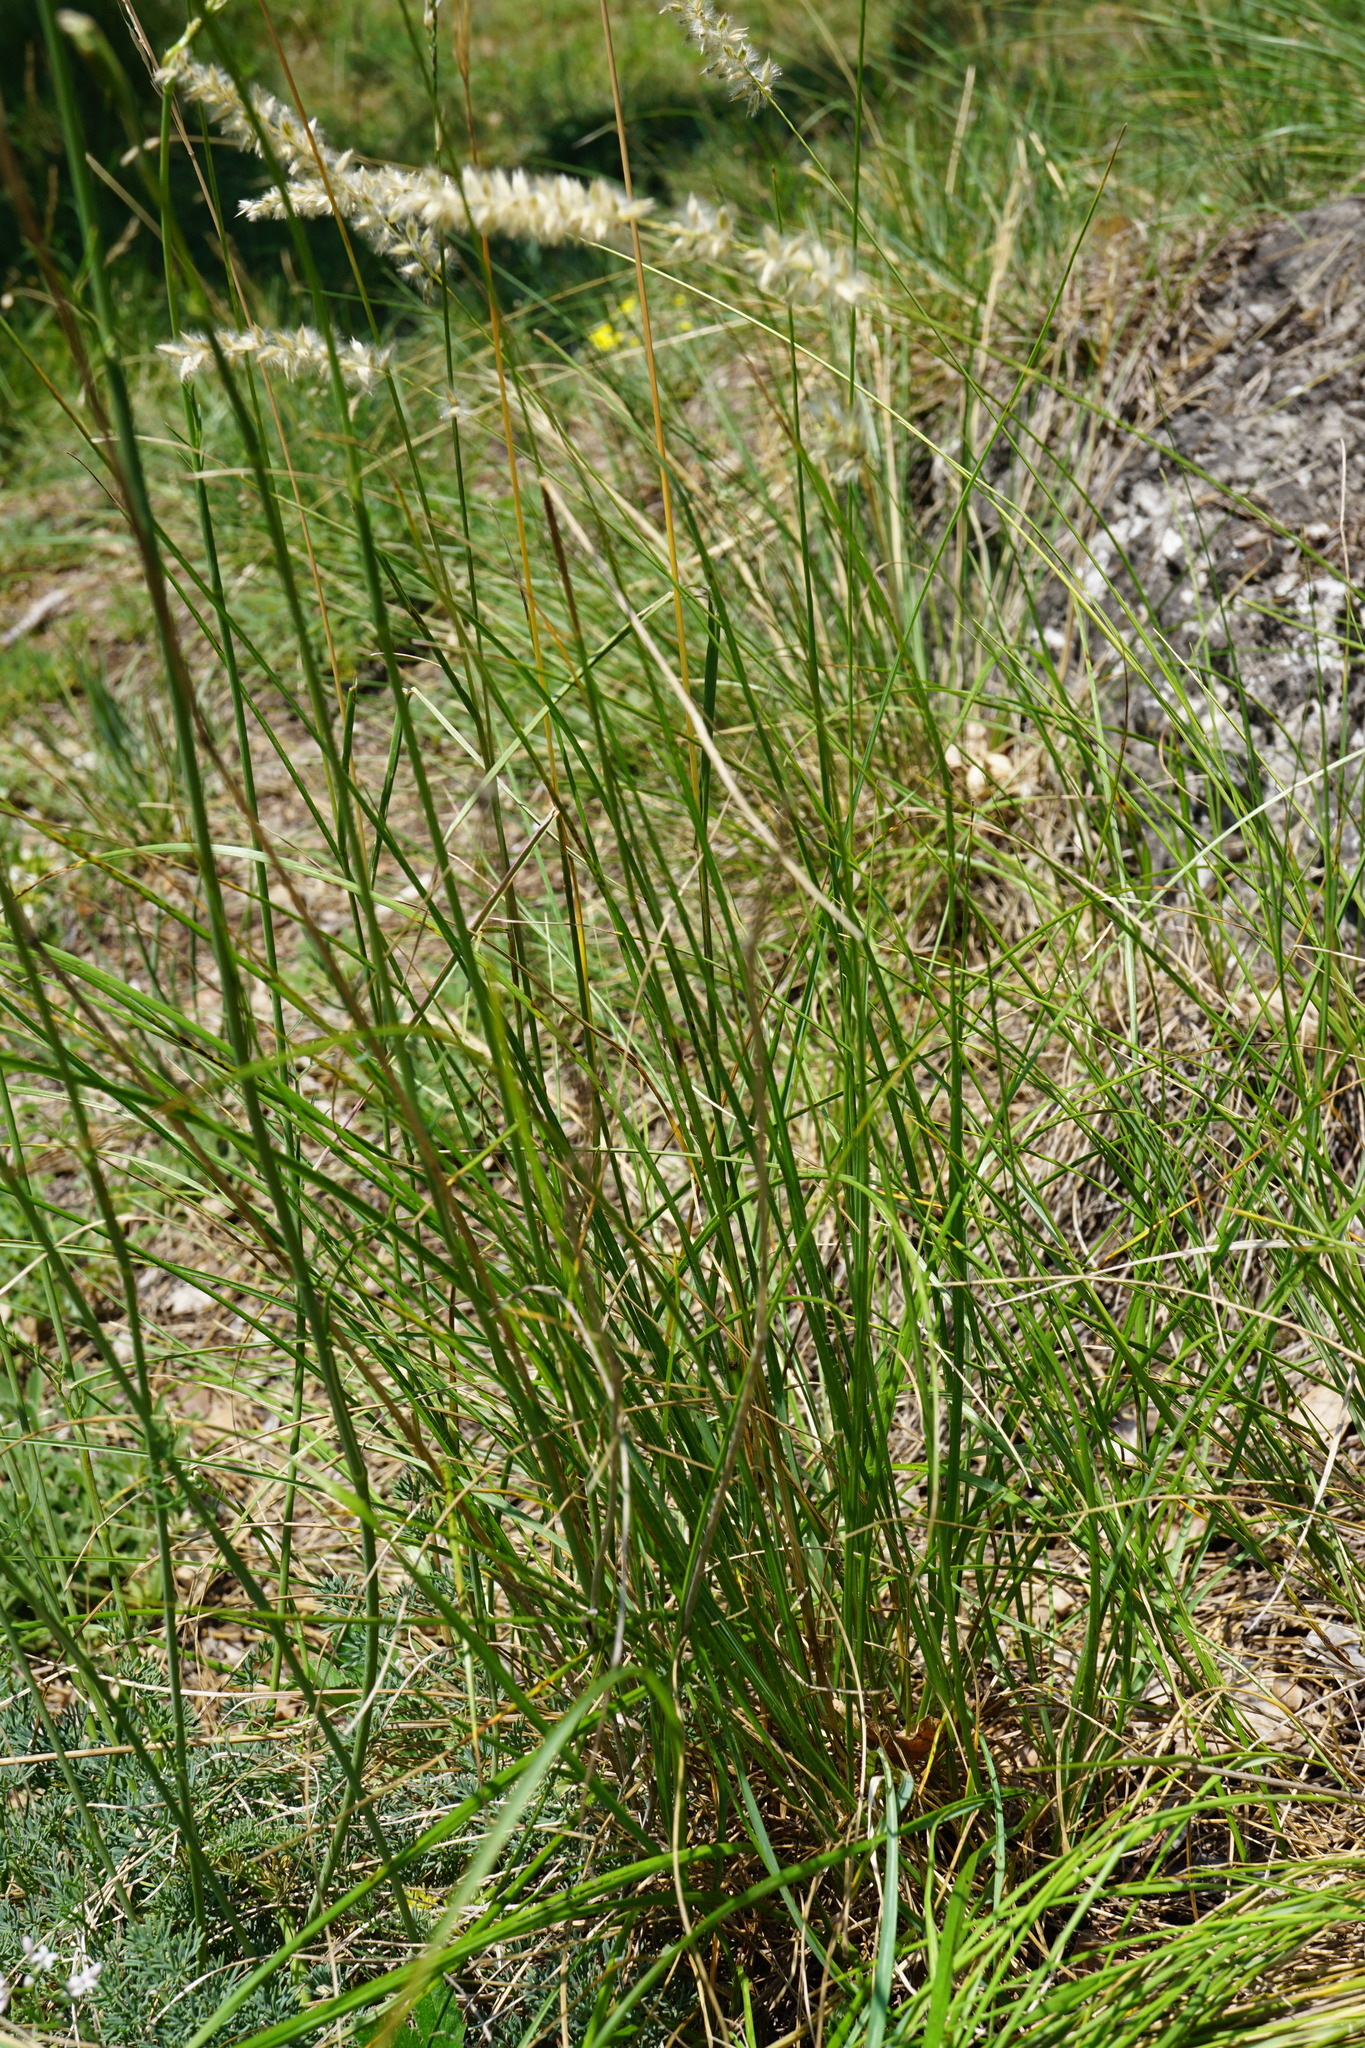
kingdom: Plantae
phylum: Tracheophyta
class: Liliopsida
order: Poales
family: Poaceae
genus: Melica
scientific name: Melica ciliata
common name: Hairy melicgrass
